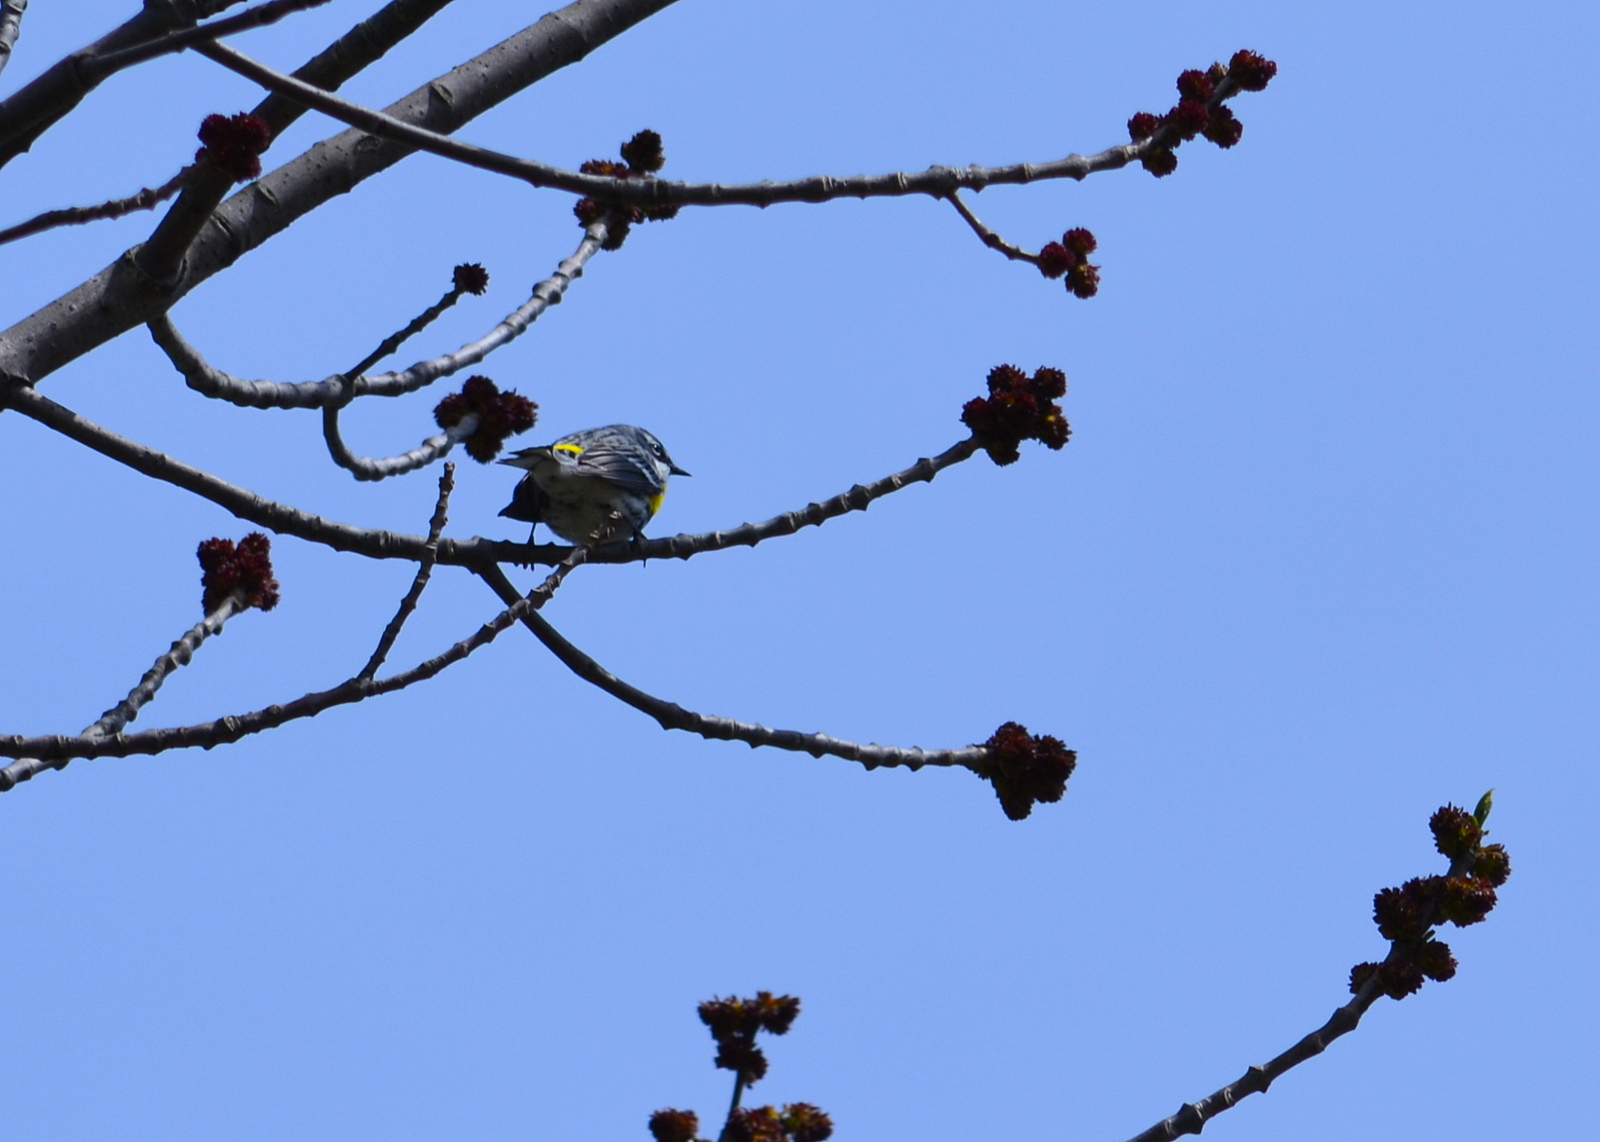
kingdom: Animalia
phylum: Chordata
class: Aves
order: Passeriformes
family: Parulidae
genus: Setophaga
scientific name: Setophaga coronata
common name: Myrtle warbler
